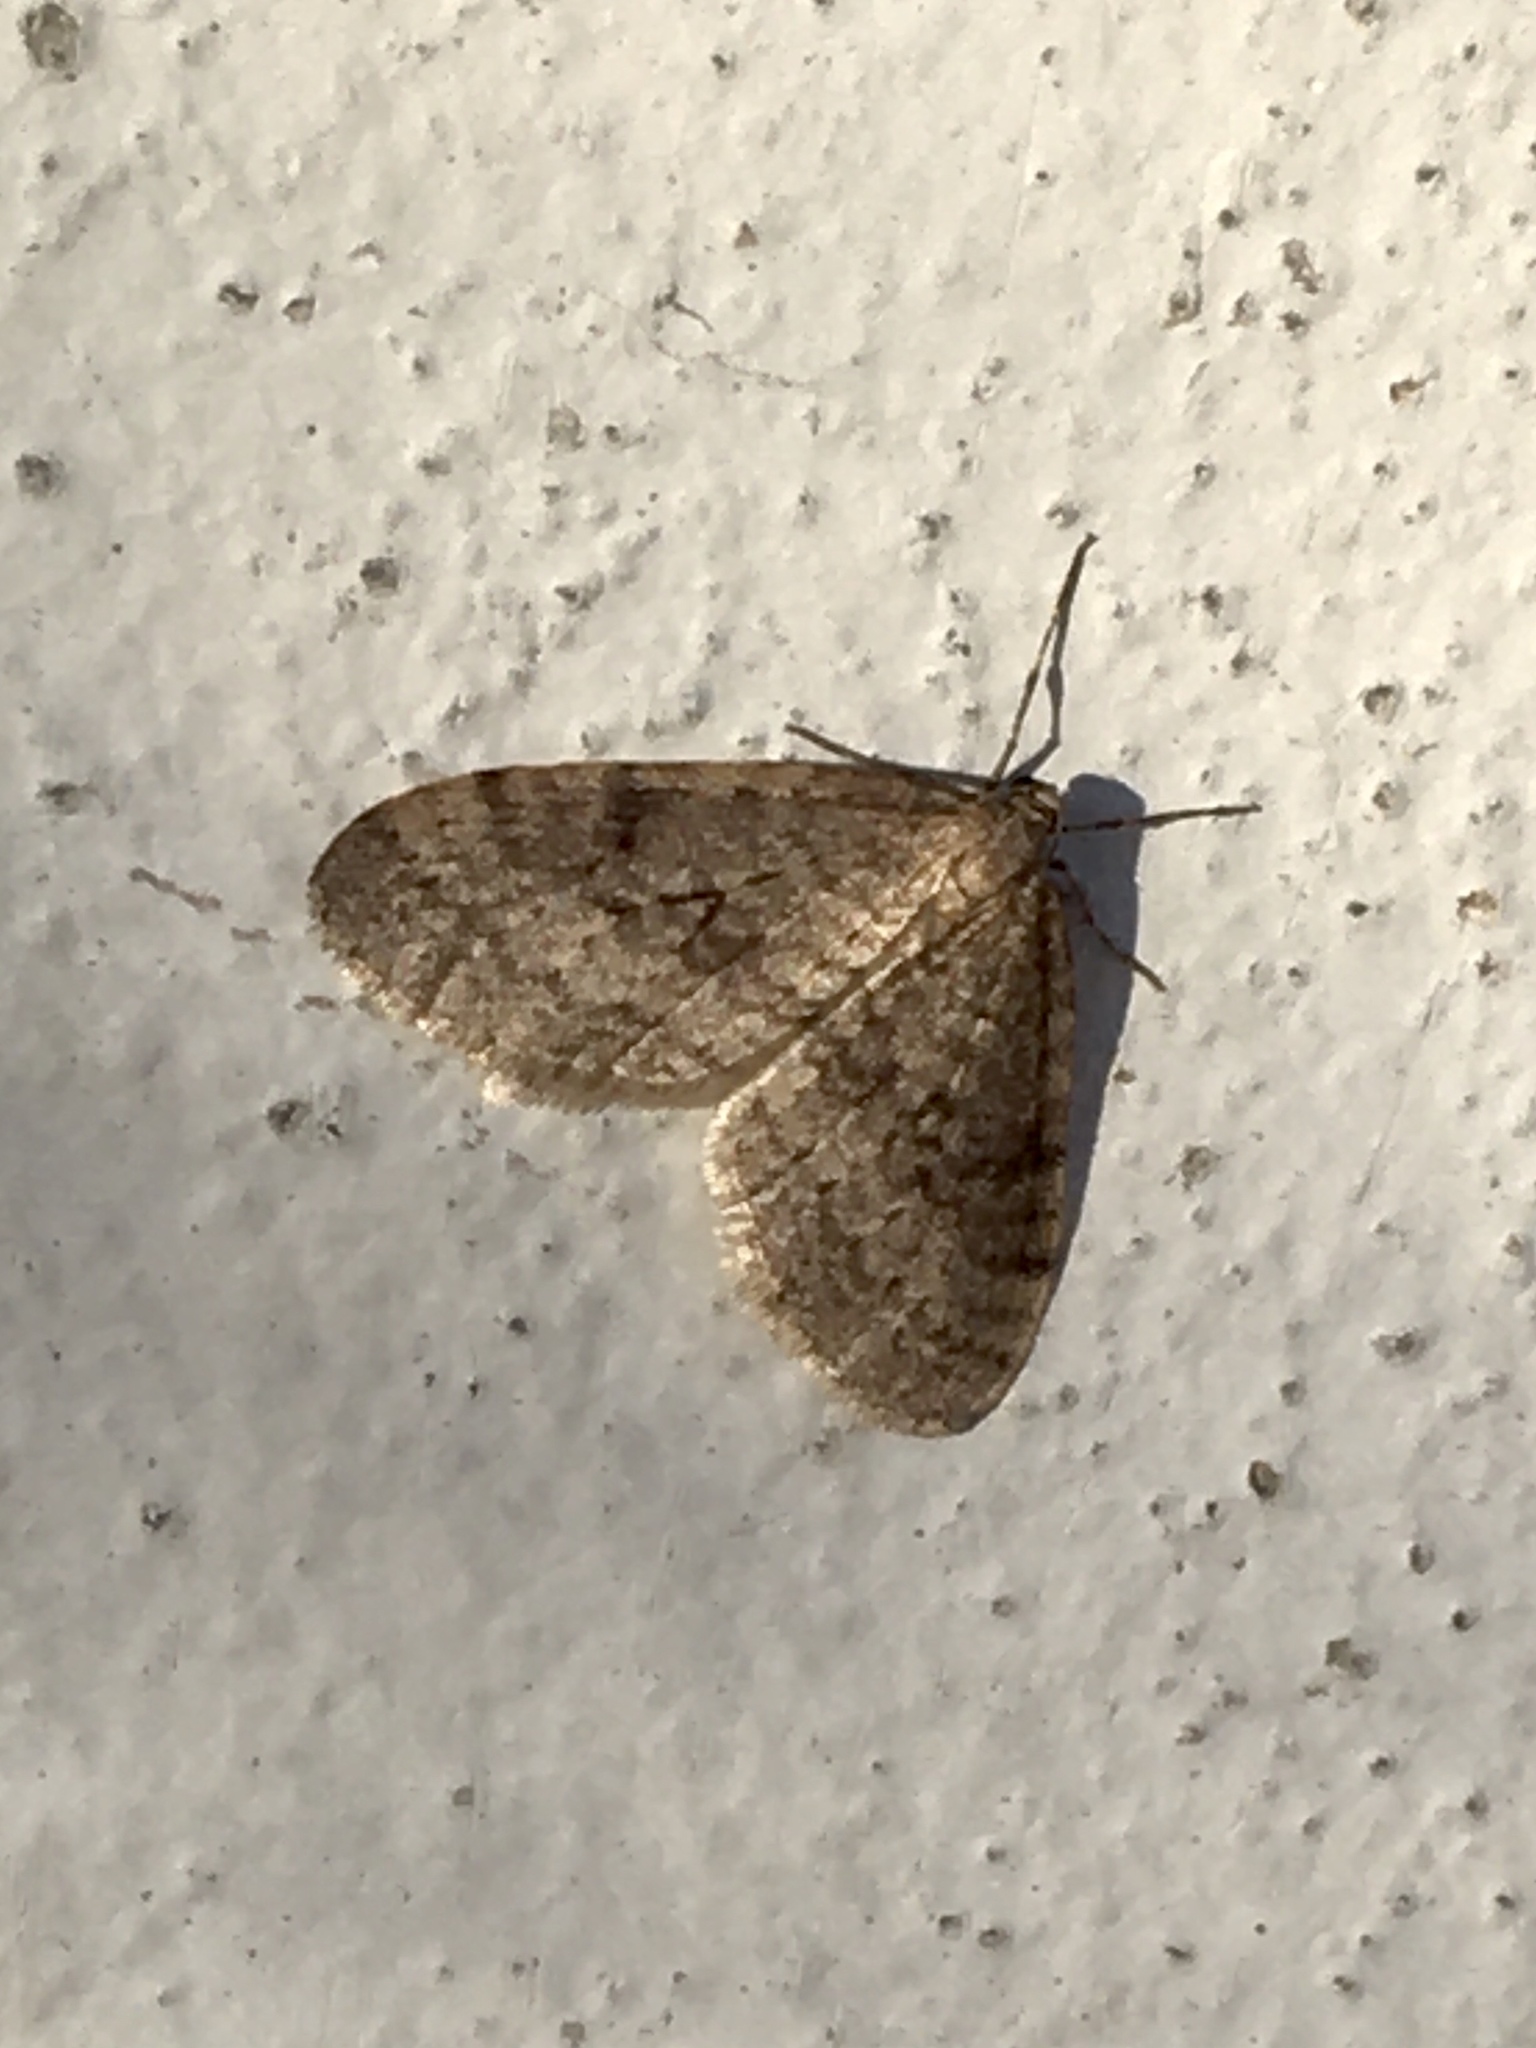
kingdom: Animalia
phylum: Arthropoda
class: Insecta
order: Lepidoptera
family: Geometridae
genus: Operophtera
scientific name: Operophtera bruceata
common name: Bruce spanworm
